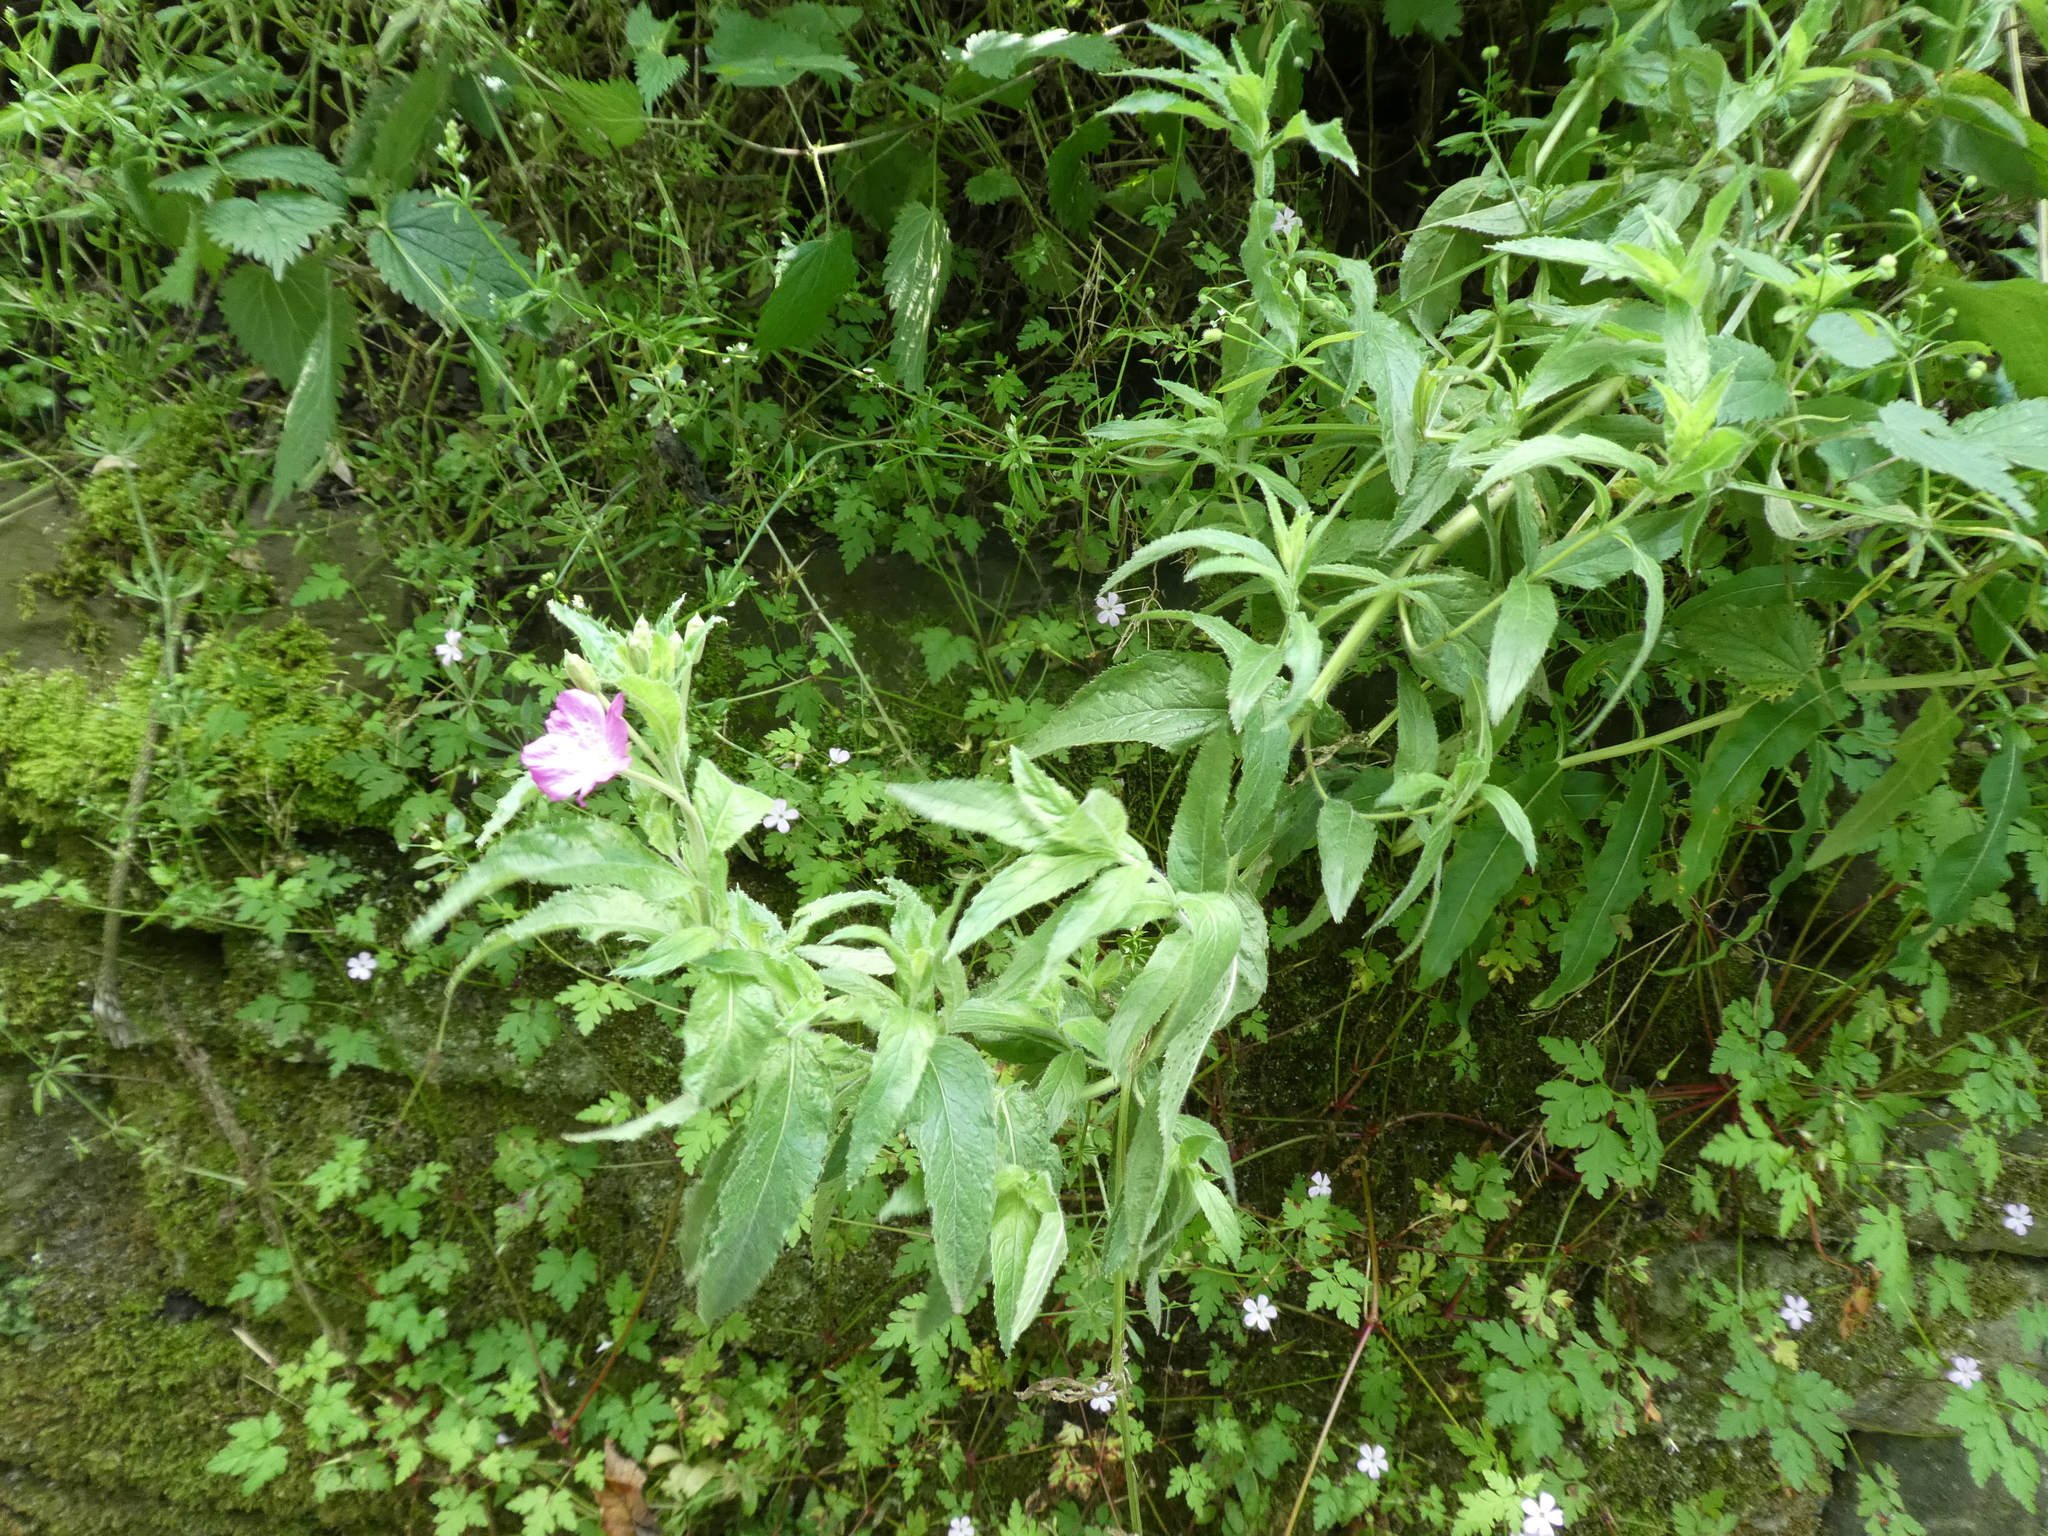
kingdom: Plantae
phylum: Tracheophyta
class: Magnoliopsida
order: Myrtales
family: Onagraceae
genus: Epilobium
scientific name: Epilobium hirsutum
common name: Great willowherb
